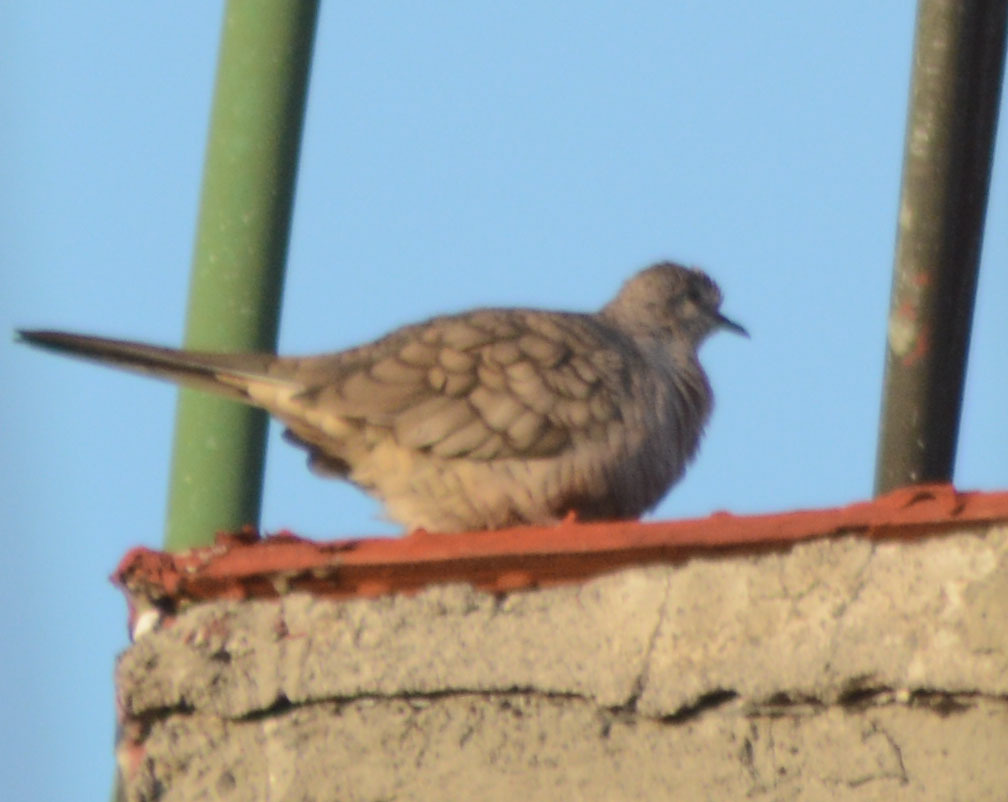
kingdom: Animalia
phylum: Chordata
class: Aves
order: Columbiformes
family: Columbidae
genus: Columbina
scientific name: Columbina inca
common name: Inca dove
